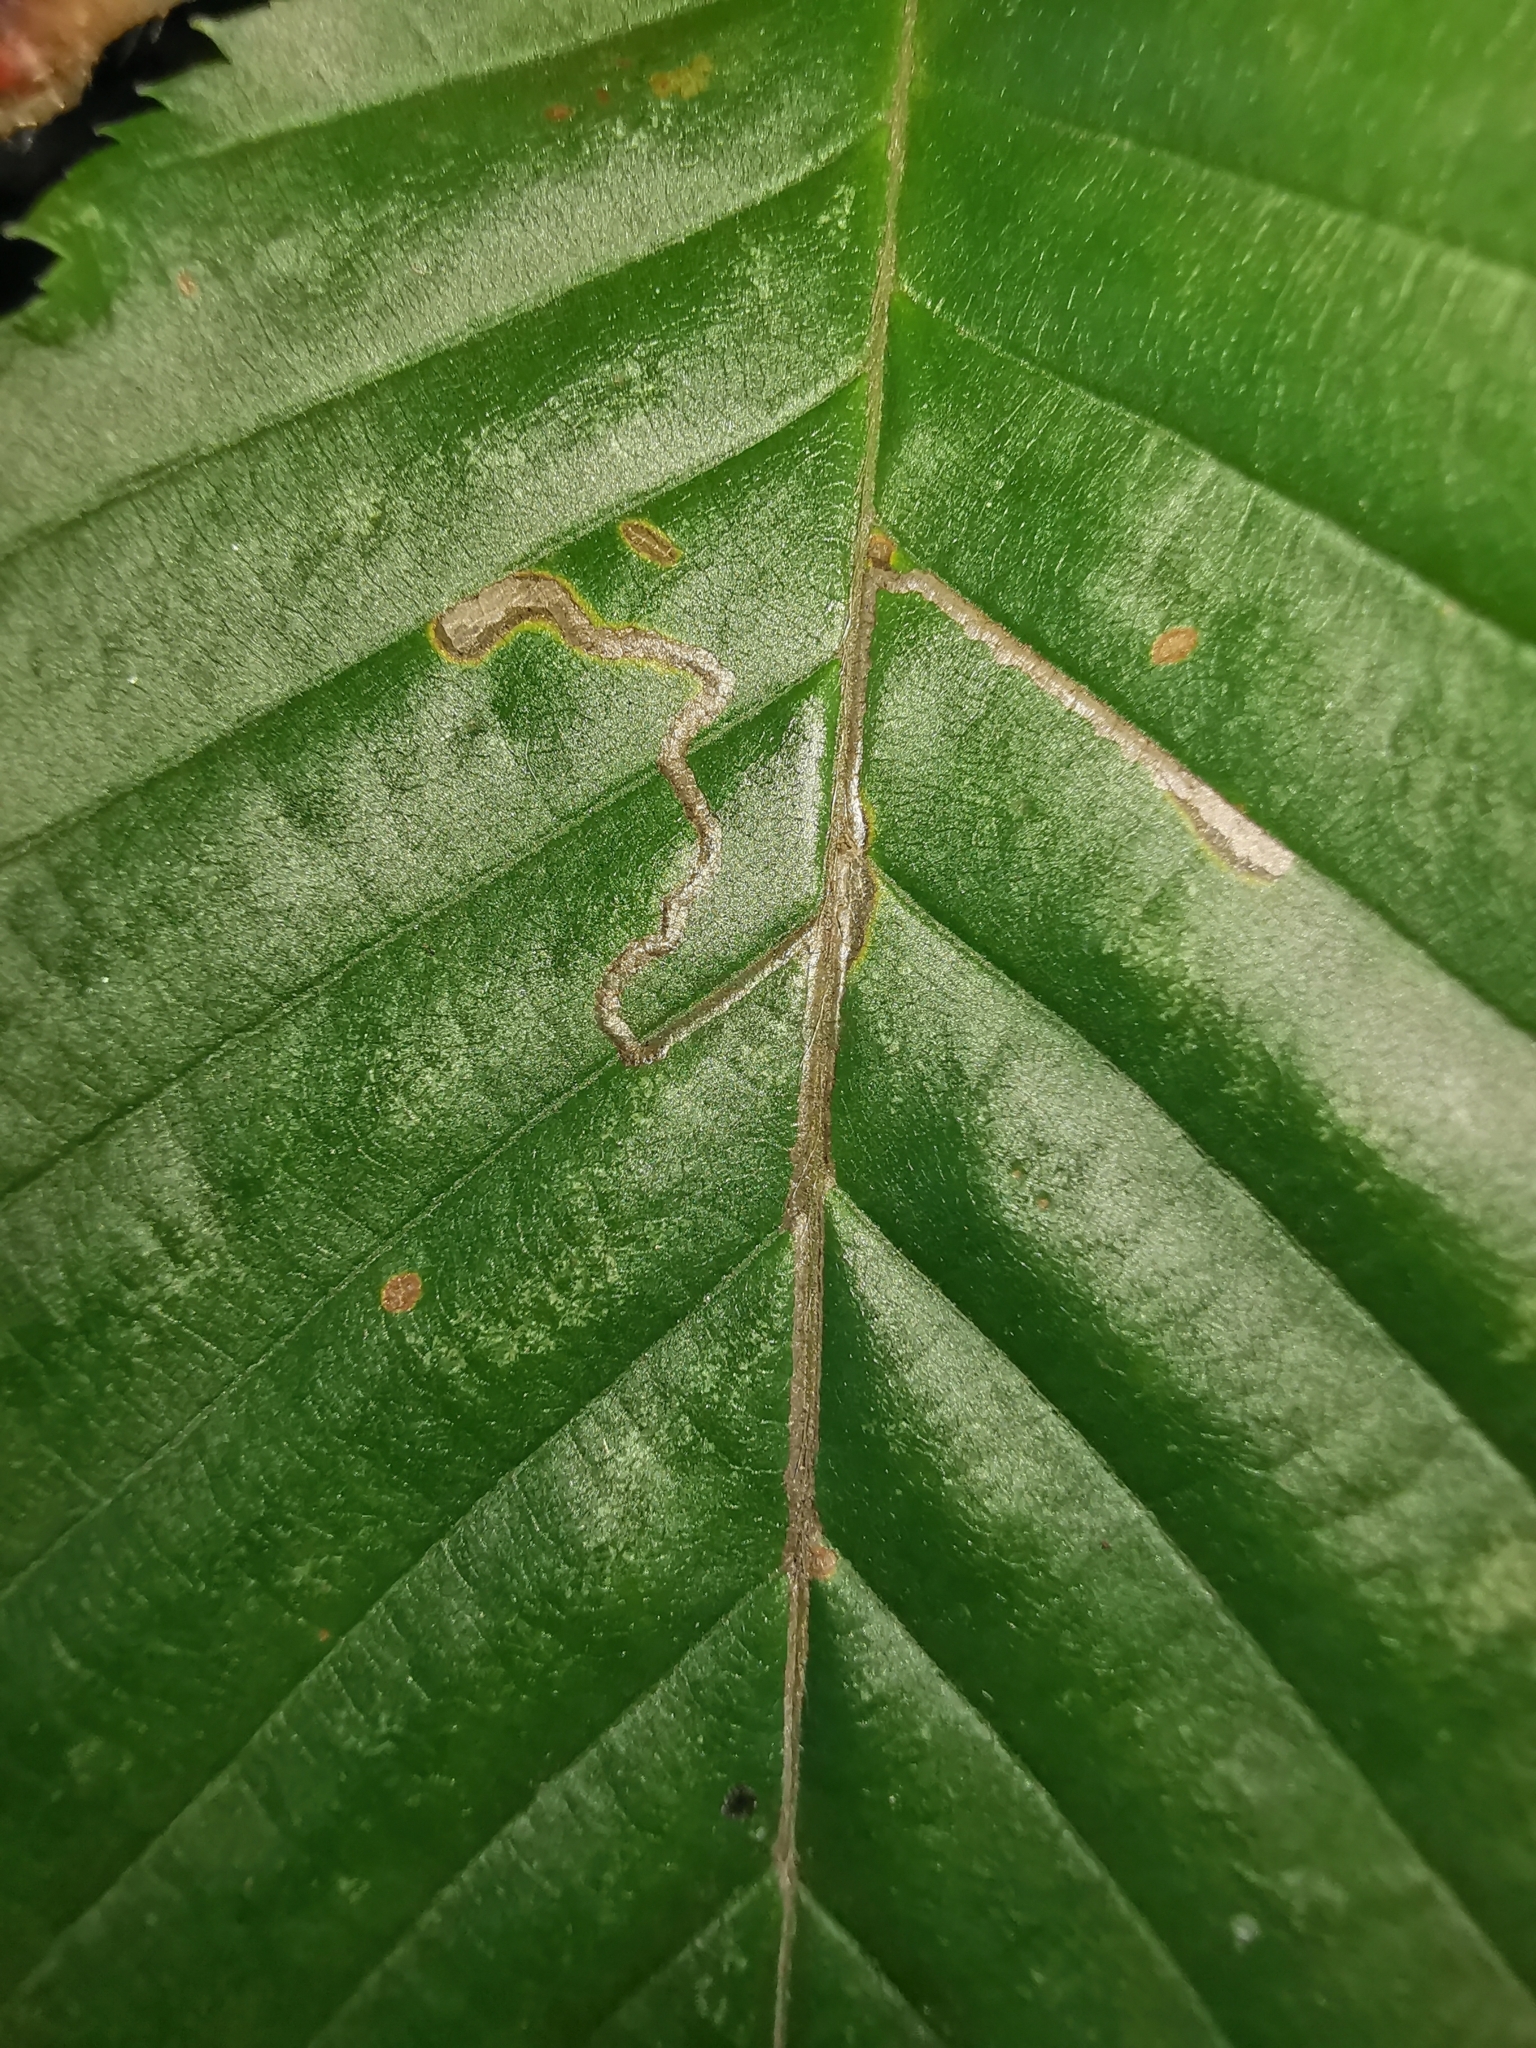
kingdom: Animalia
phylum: Arthropoda
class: Insecta
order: Lepidoptera
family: Nepticulidae
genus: Stigmella
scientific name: Stigmella microtheriella
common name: Nut-tree pigmy
